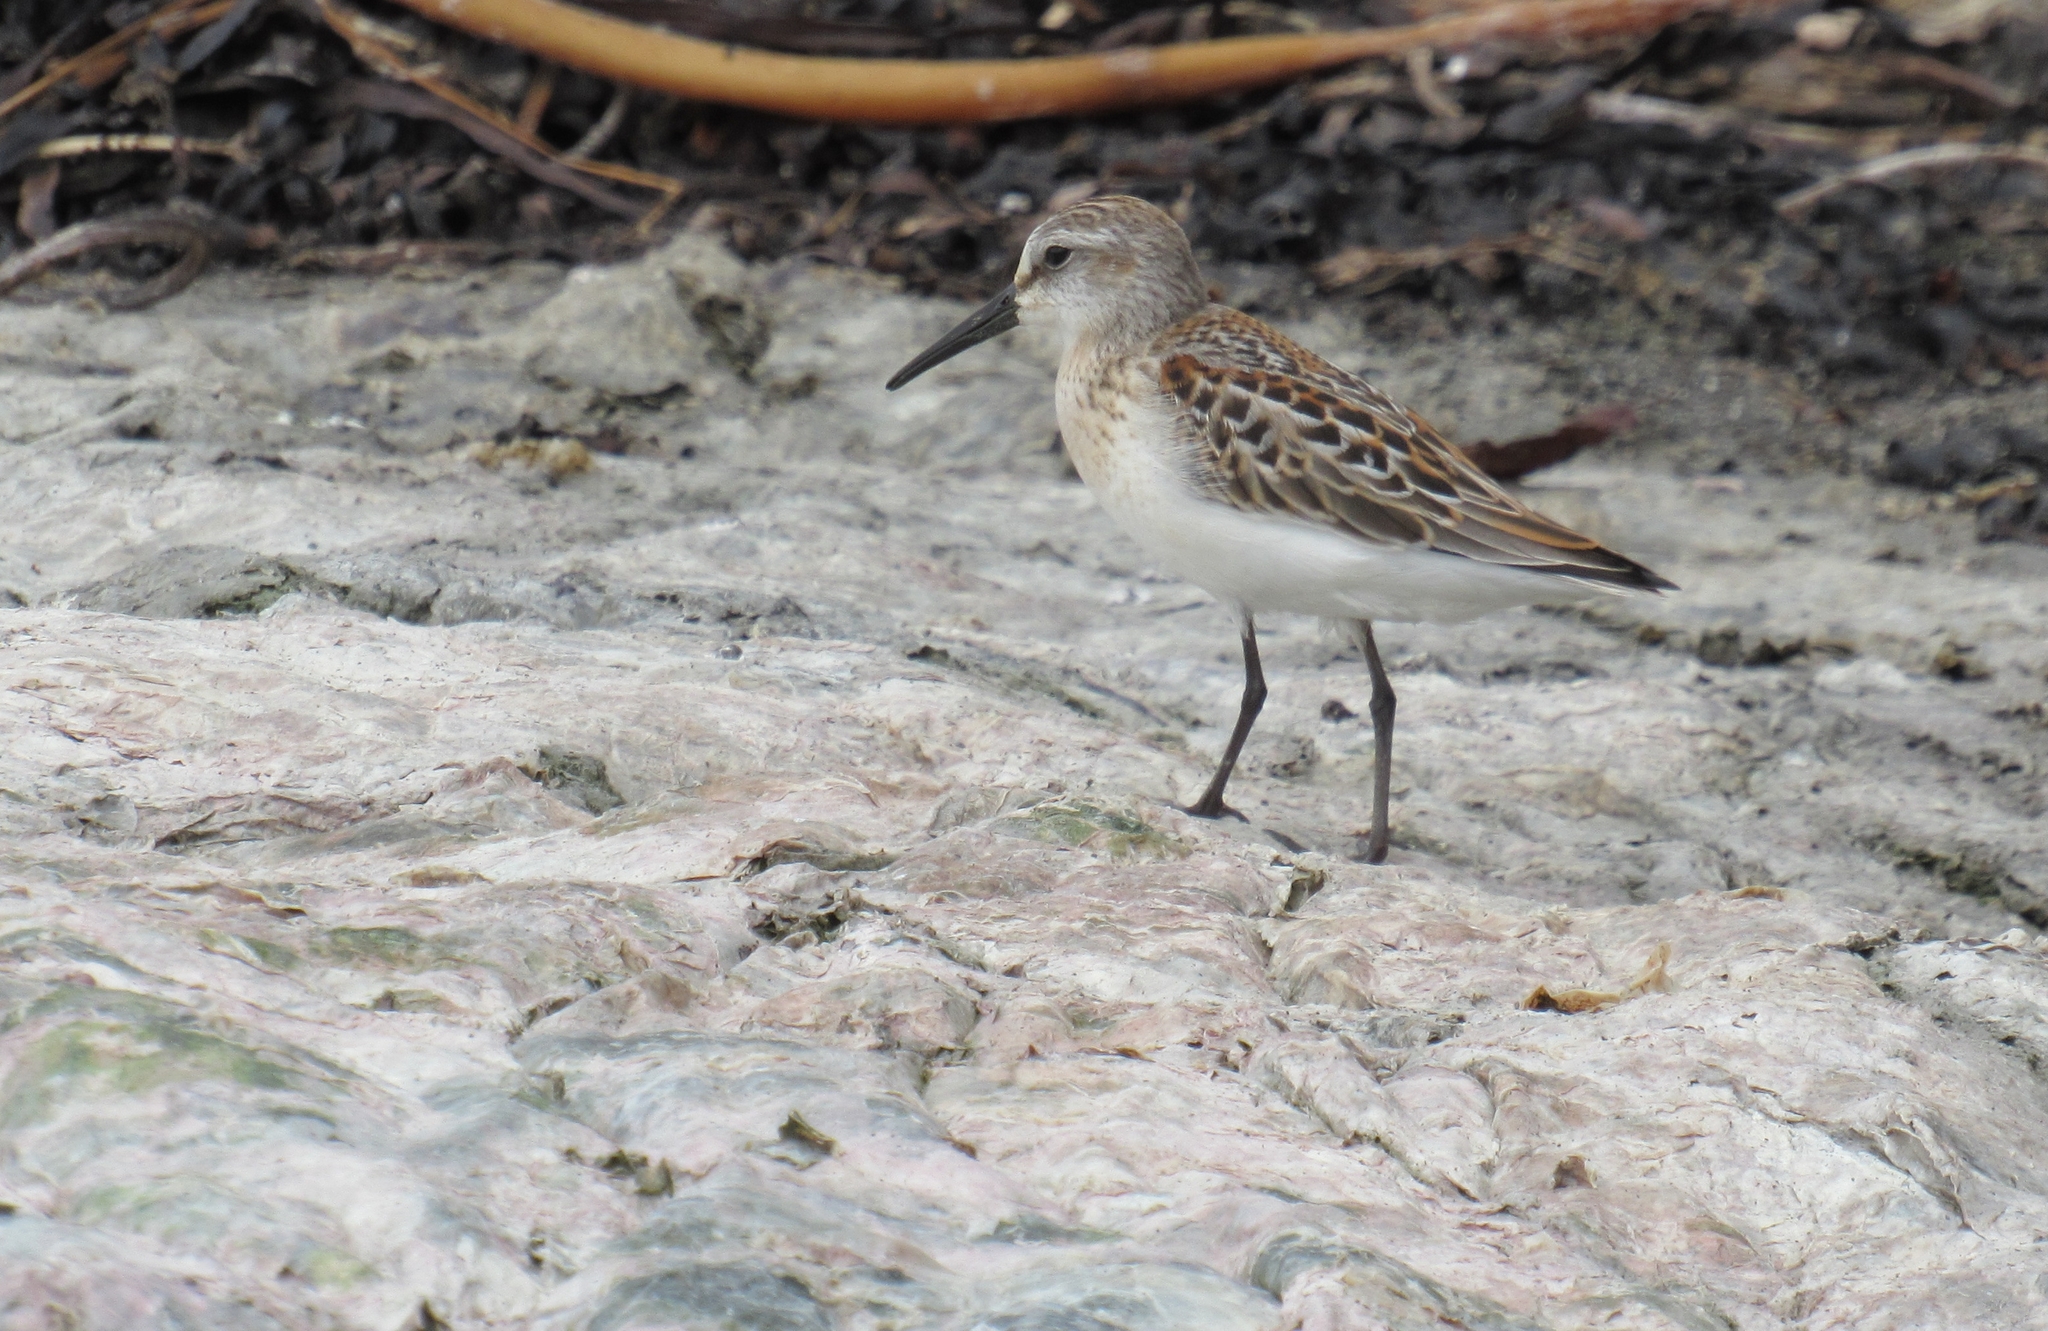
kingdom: Animalia
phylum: Chordata
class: Aves
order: Charadriiformes
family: Scolopacidae
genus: Calidris
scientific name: Calidris mauri
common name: Western sandpiper
